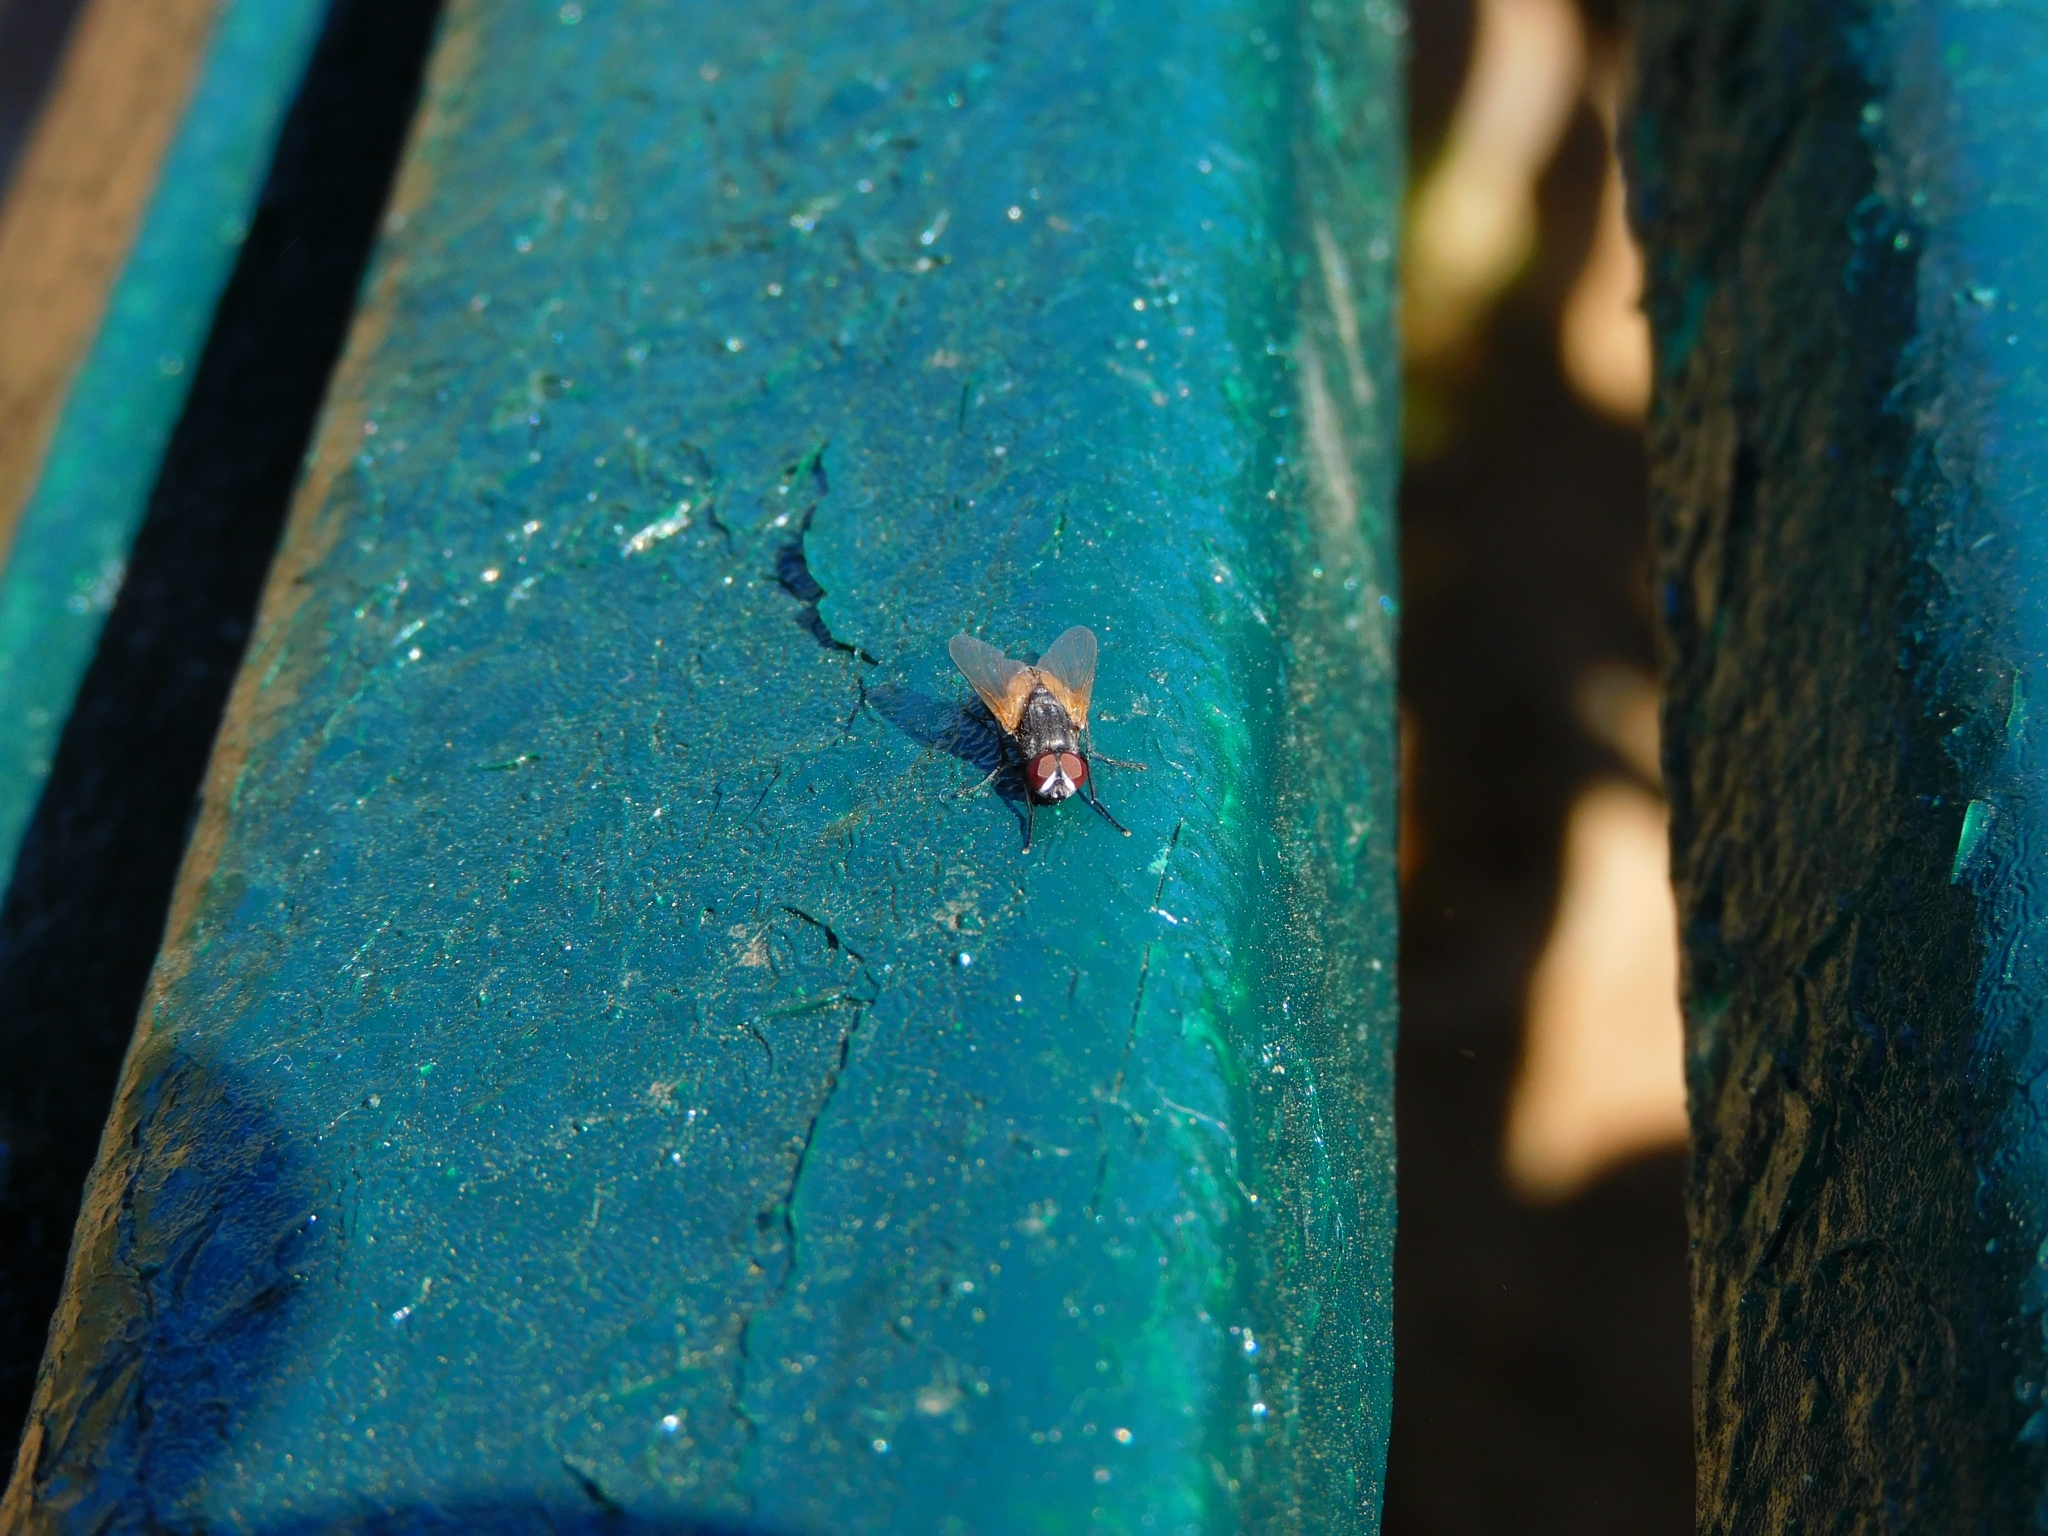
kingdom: Animalia
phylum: Arthropoda
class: Insecta
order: Diptera
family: Muscidae
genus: Musca
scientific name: Musca domestica
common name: House fly
